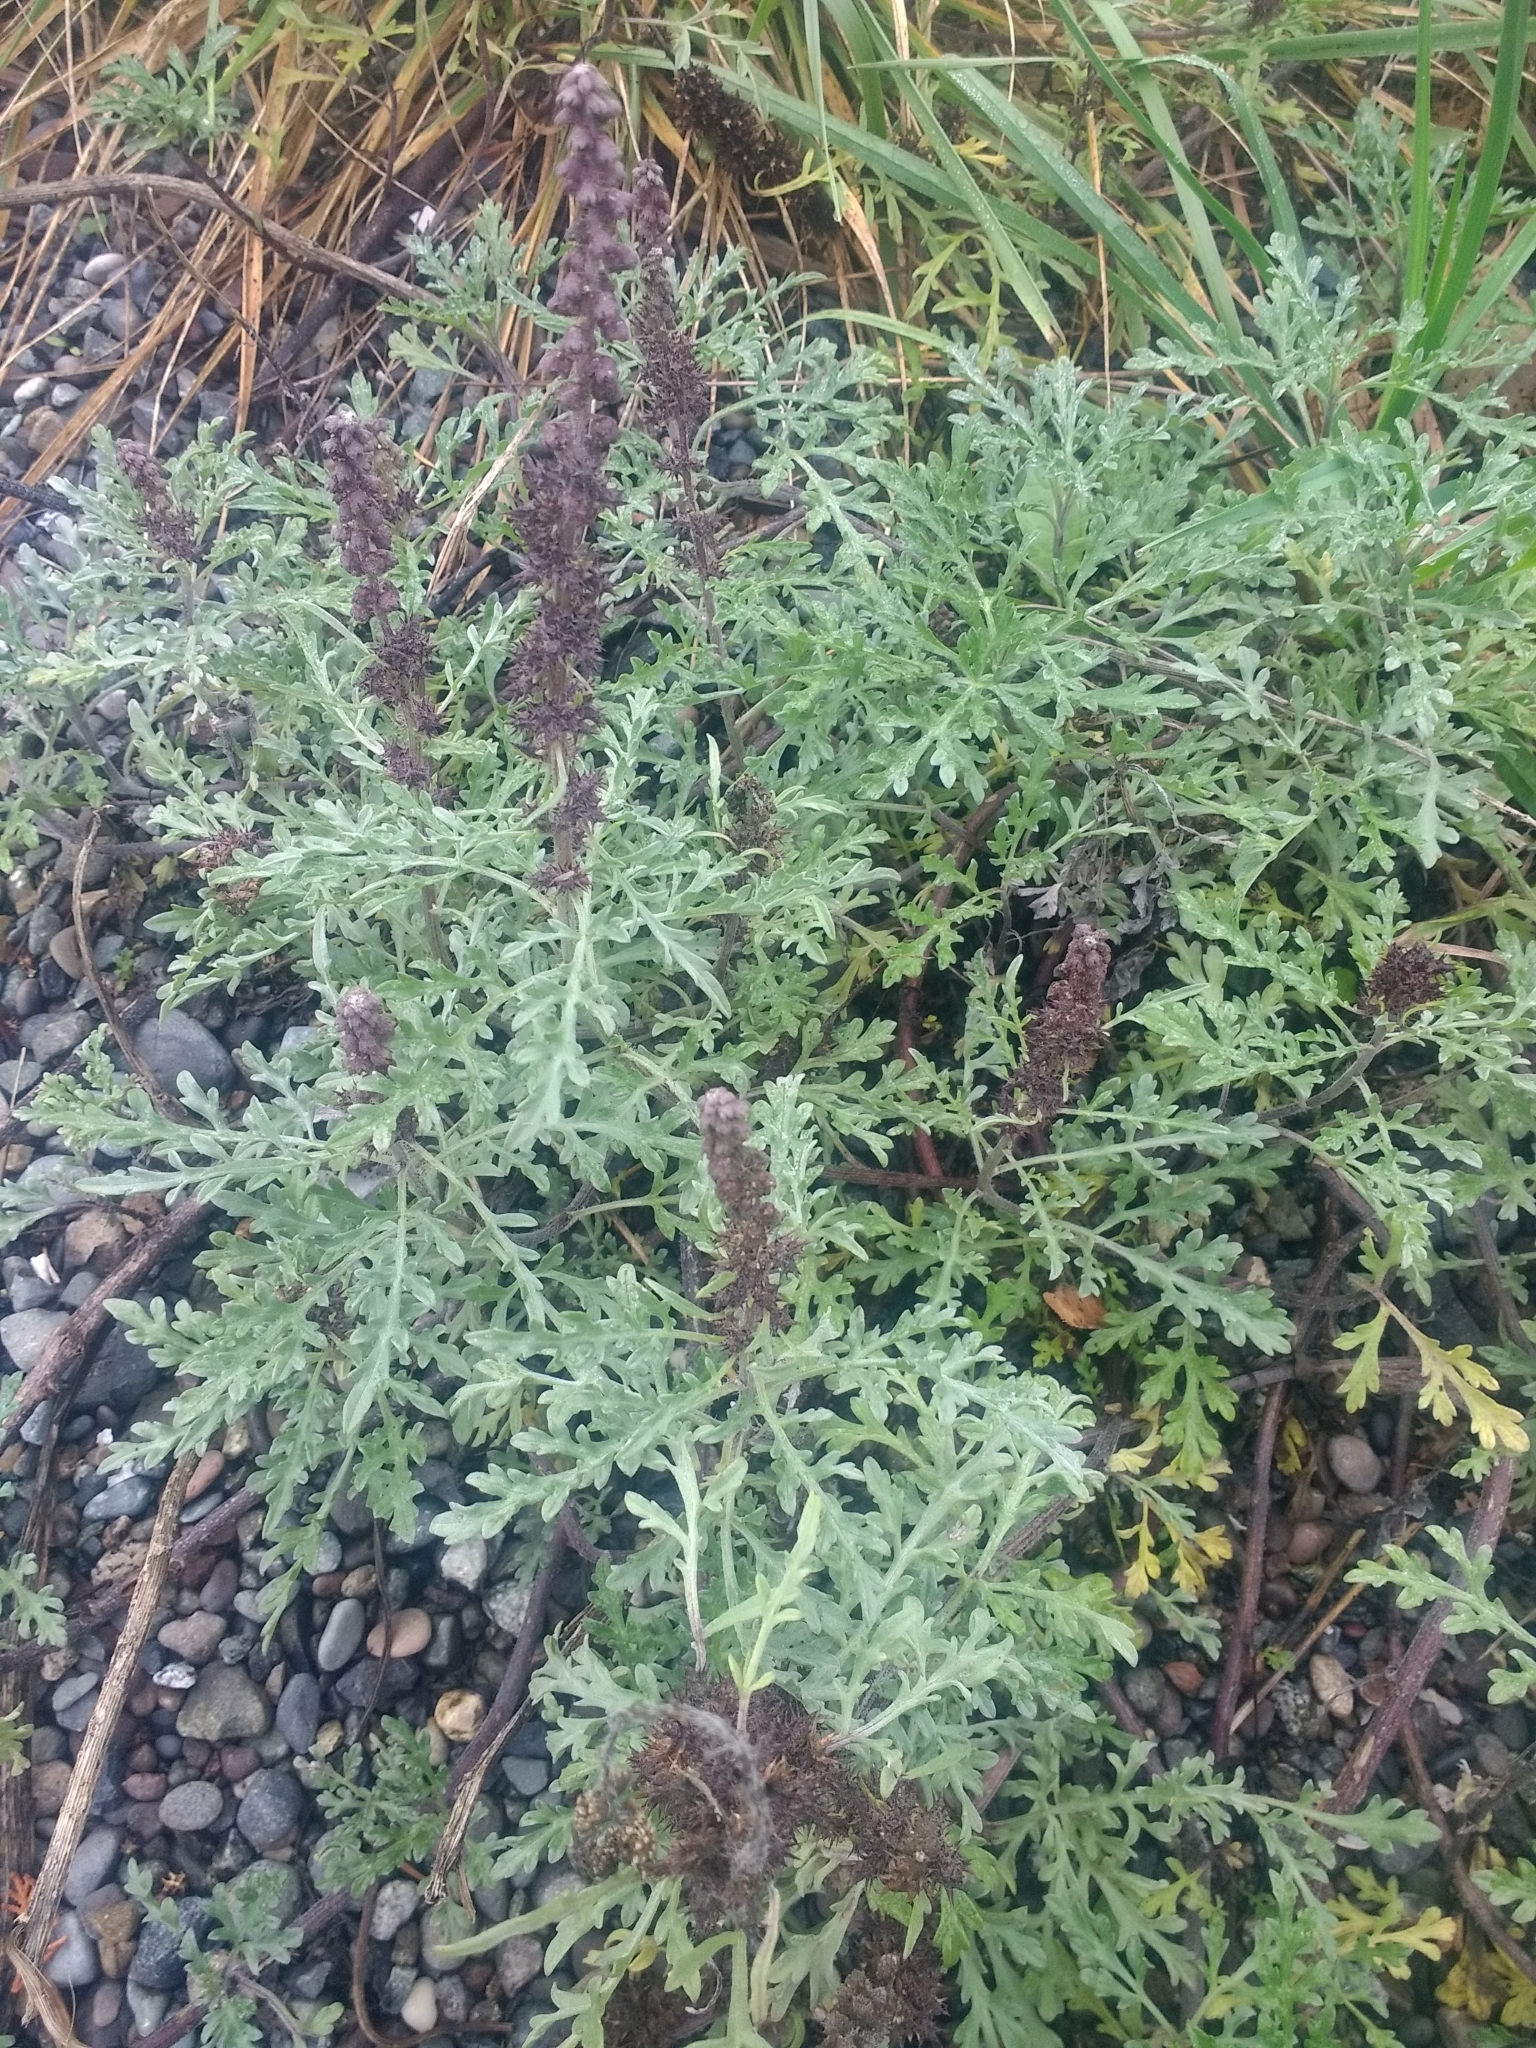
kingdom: Plantae
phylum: Tracheophyta
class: Magnoliopsida
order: Asterales
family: Asteraceae
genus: Ambrosia
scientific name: Ambrosia chamissonis
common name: Beachbur
